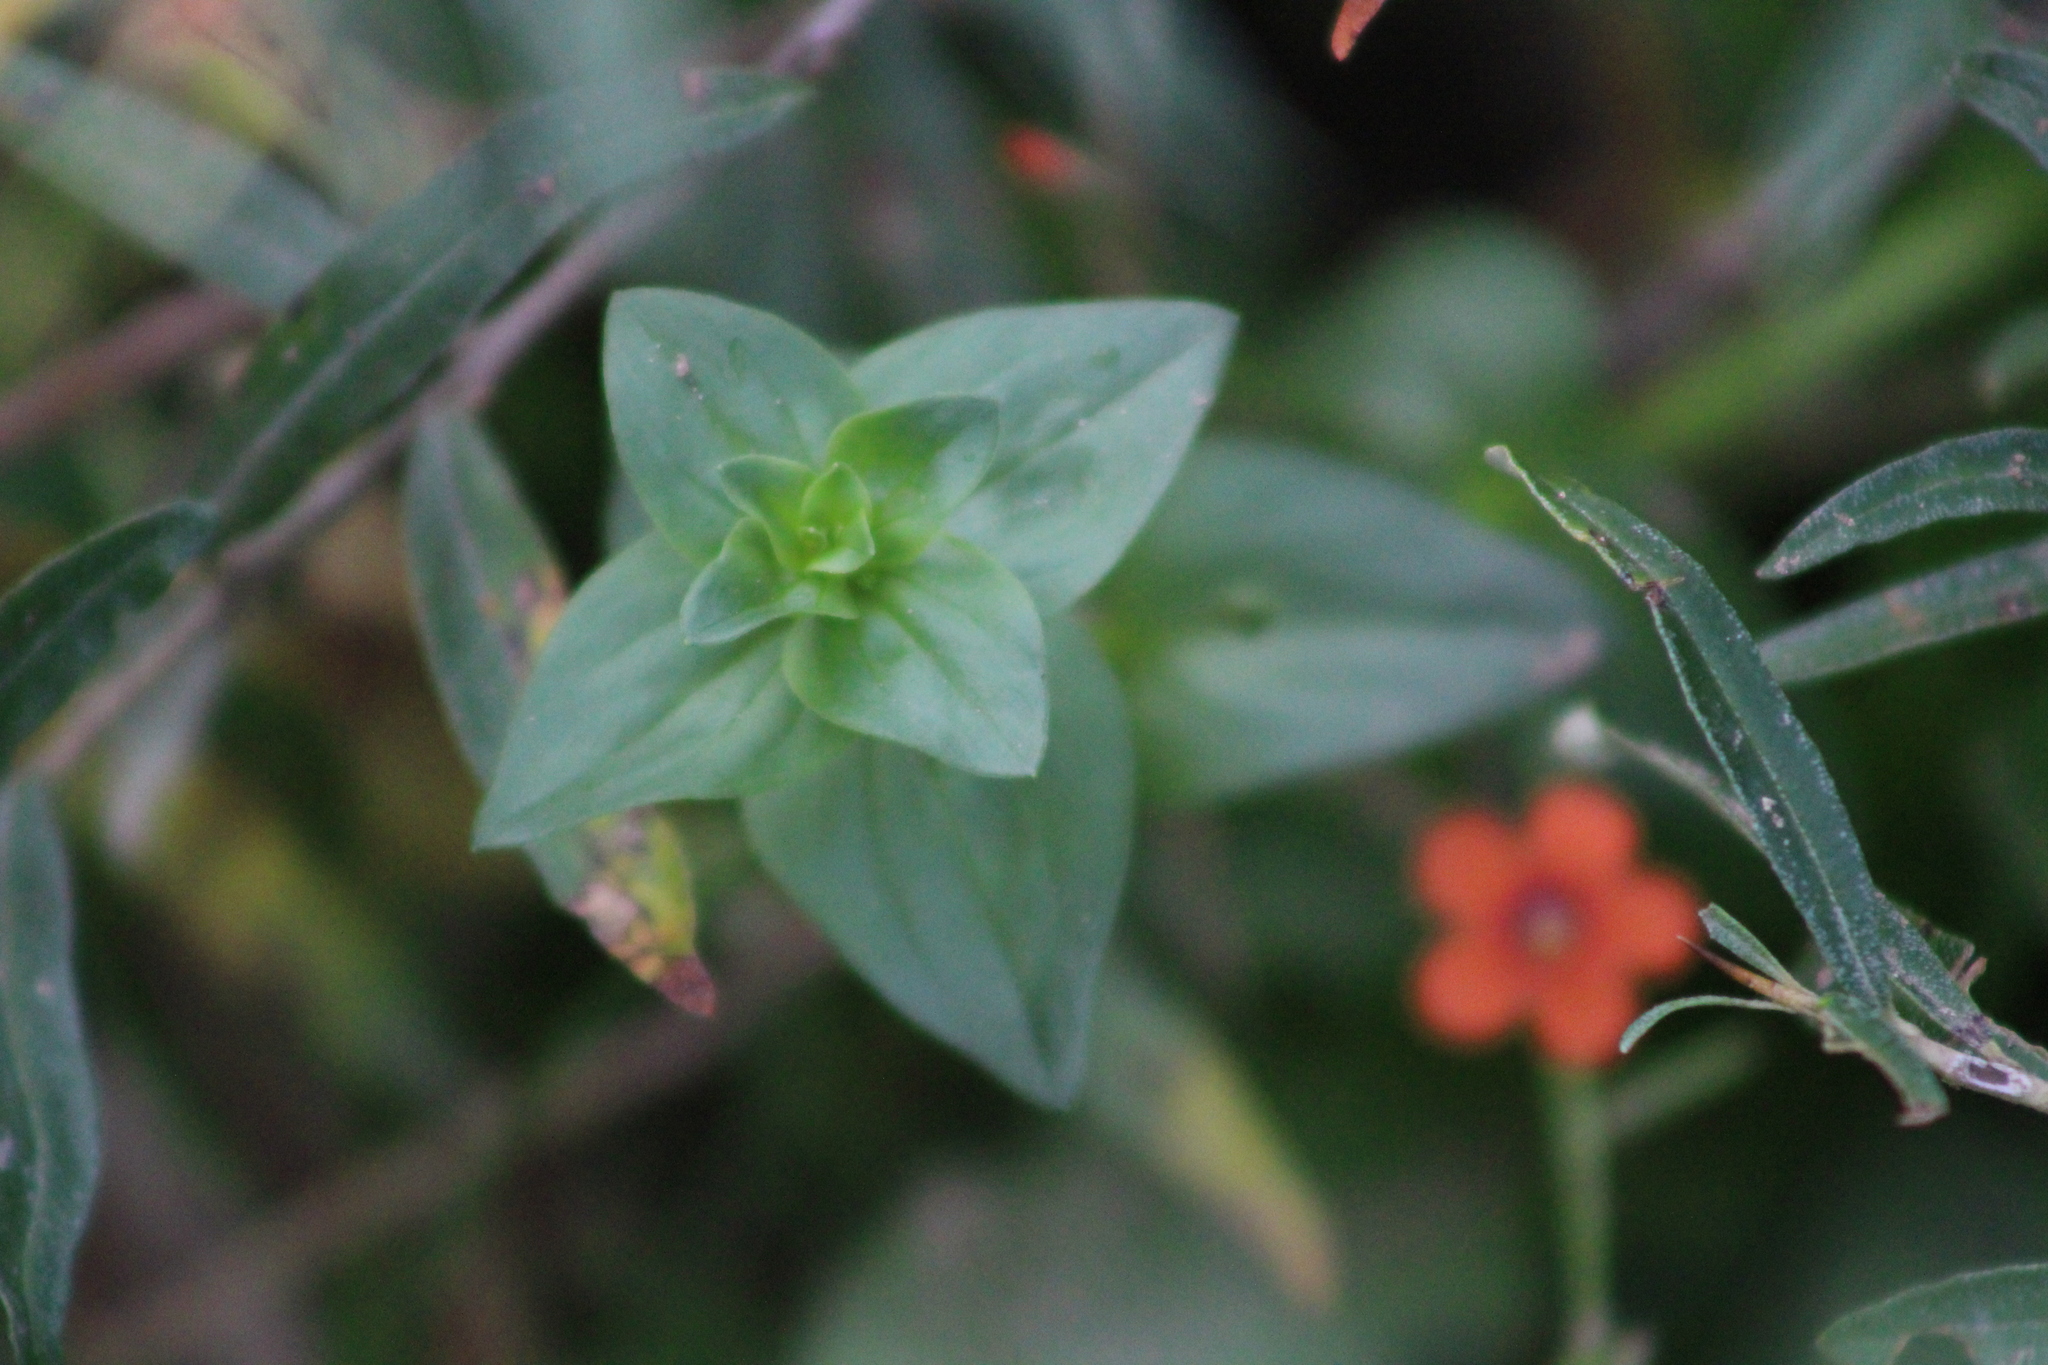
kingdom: Plantae
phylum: Tracheophyta
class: Magnoliopsida
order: Ericales
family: Primulaceae
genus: Lysimachia
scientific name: Lysimachia arvensis
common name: Scarlet pimpernel
